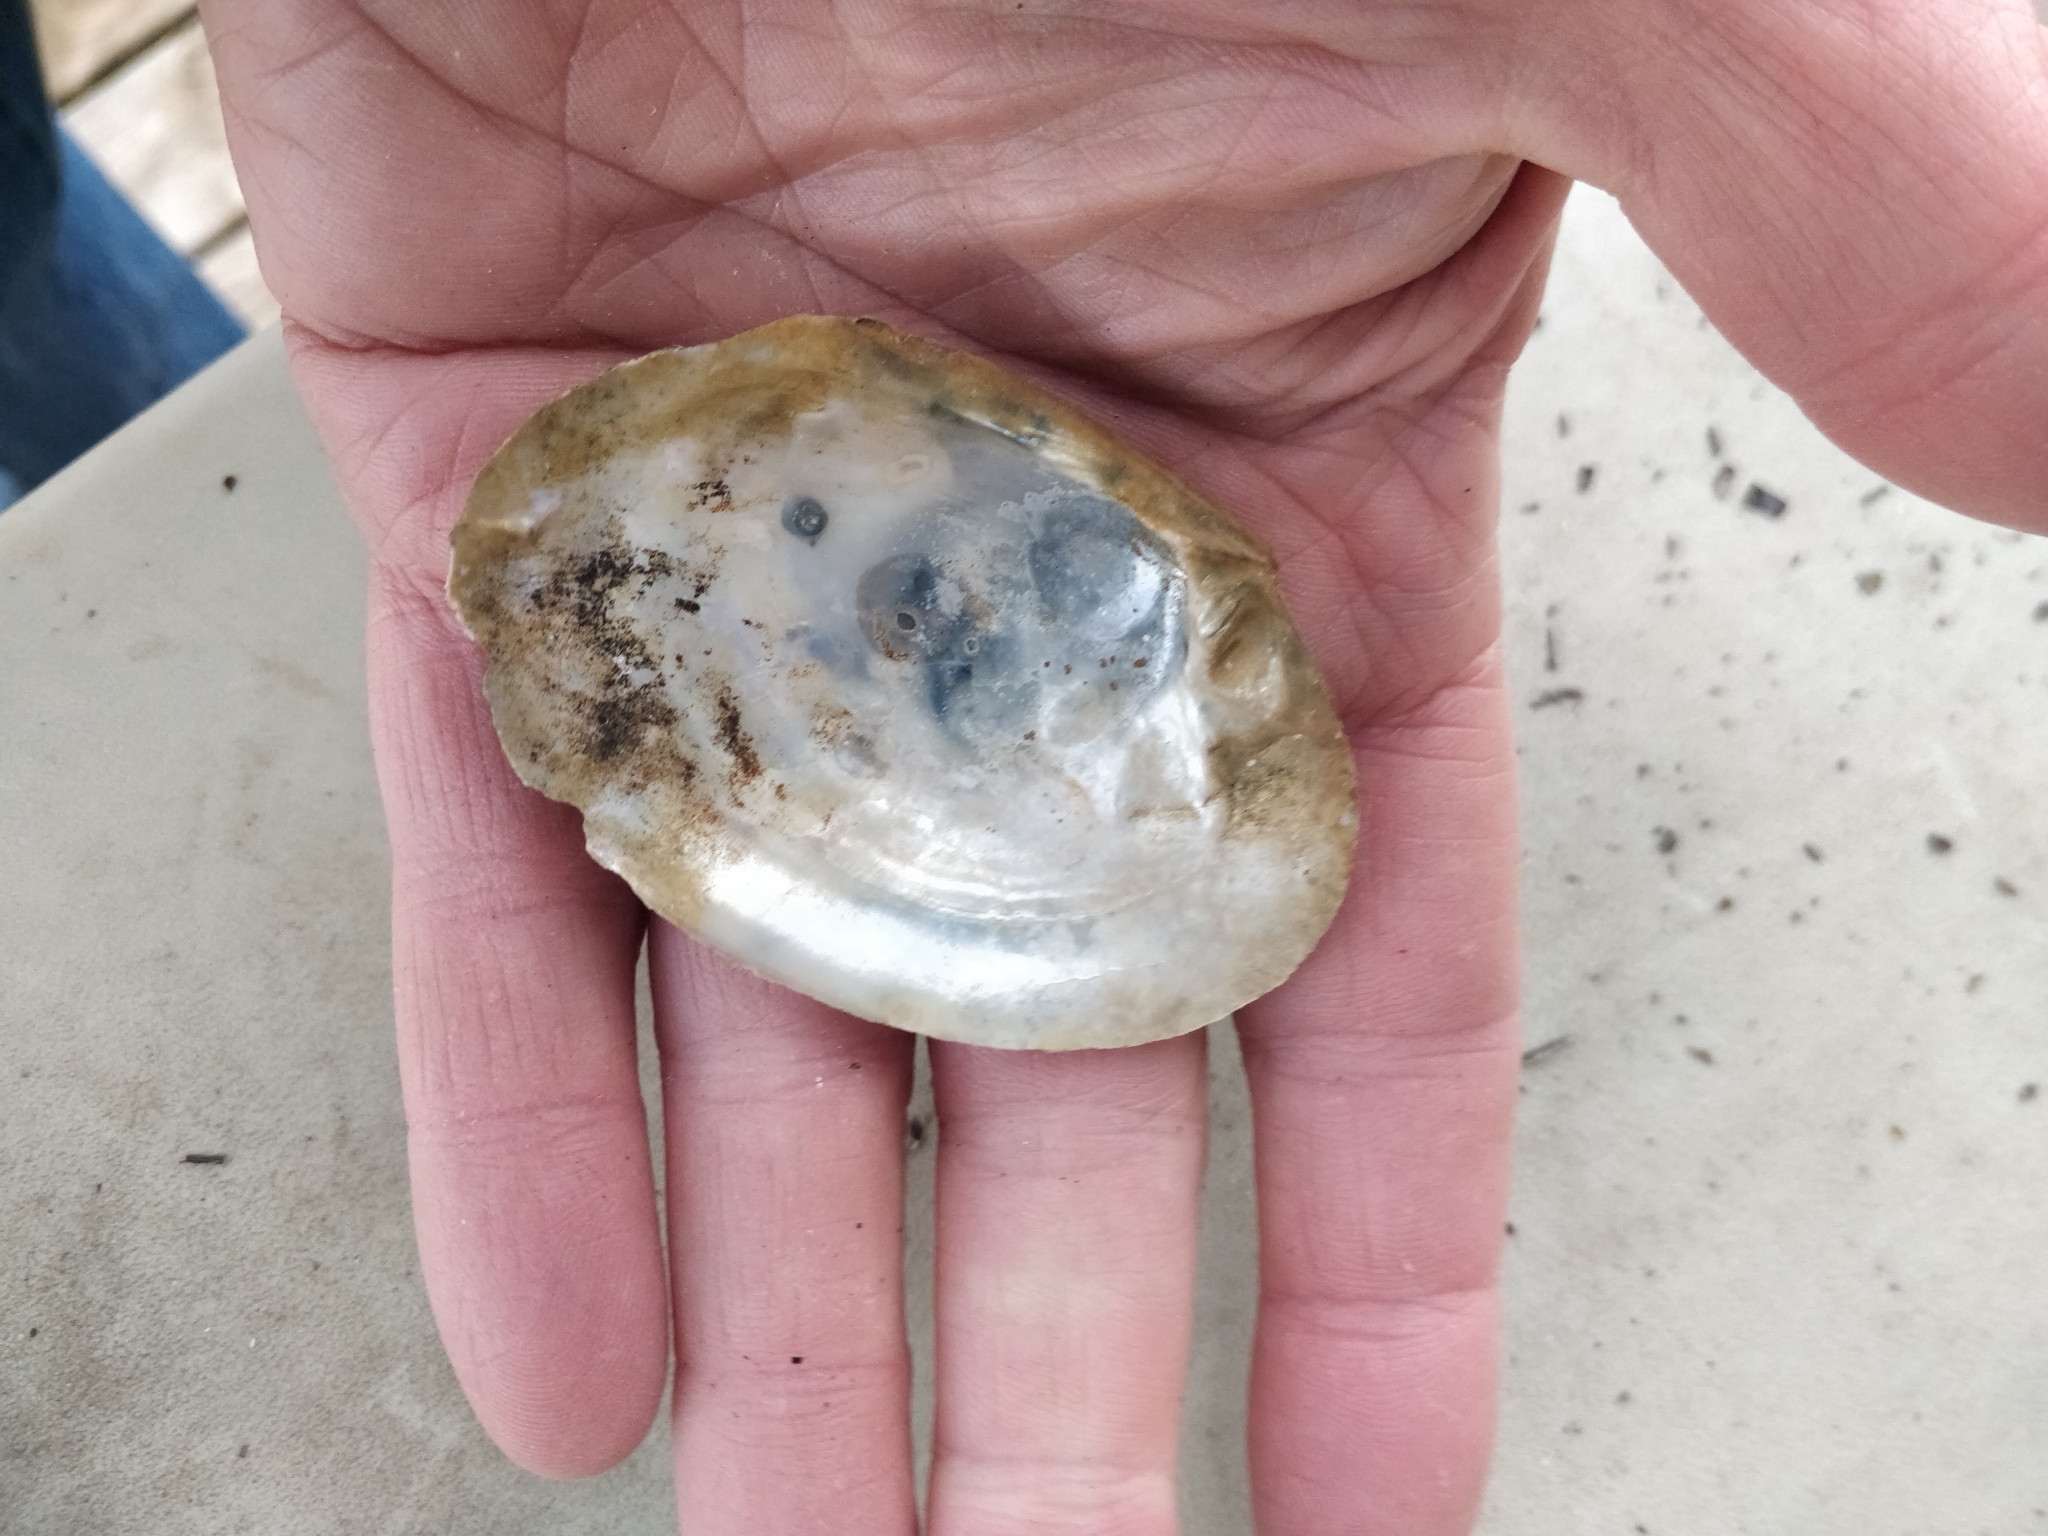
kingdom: Animalia
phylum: Mollusca
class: Bivalvia
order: Unionida
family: Unionidae
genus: Lasmigona
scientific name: Lasmigona complanata
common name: White heelsplitter
